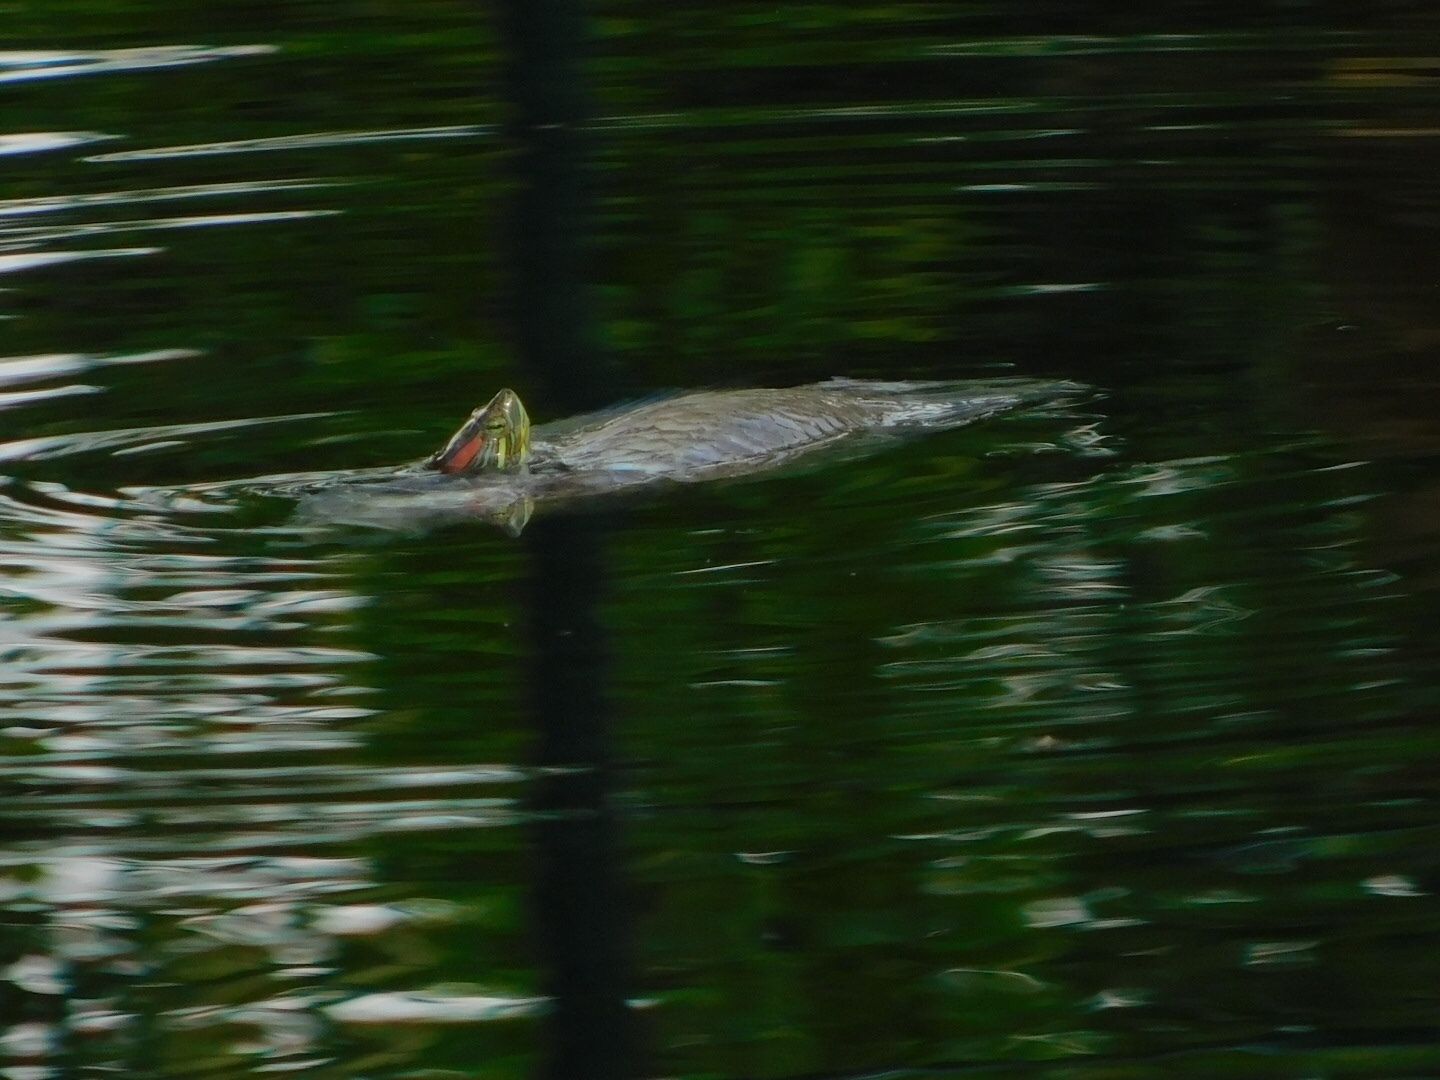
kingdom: Animalia
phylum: Chordata
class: Testudines
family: Emydidae
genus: Trachemys
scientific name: Trachemys scripta
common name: Slider
